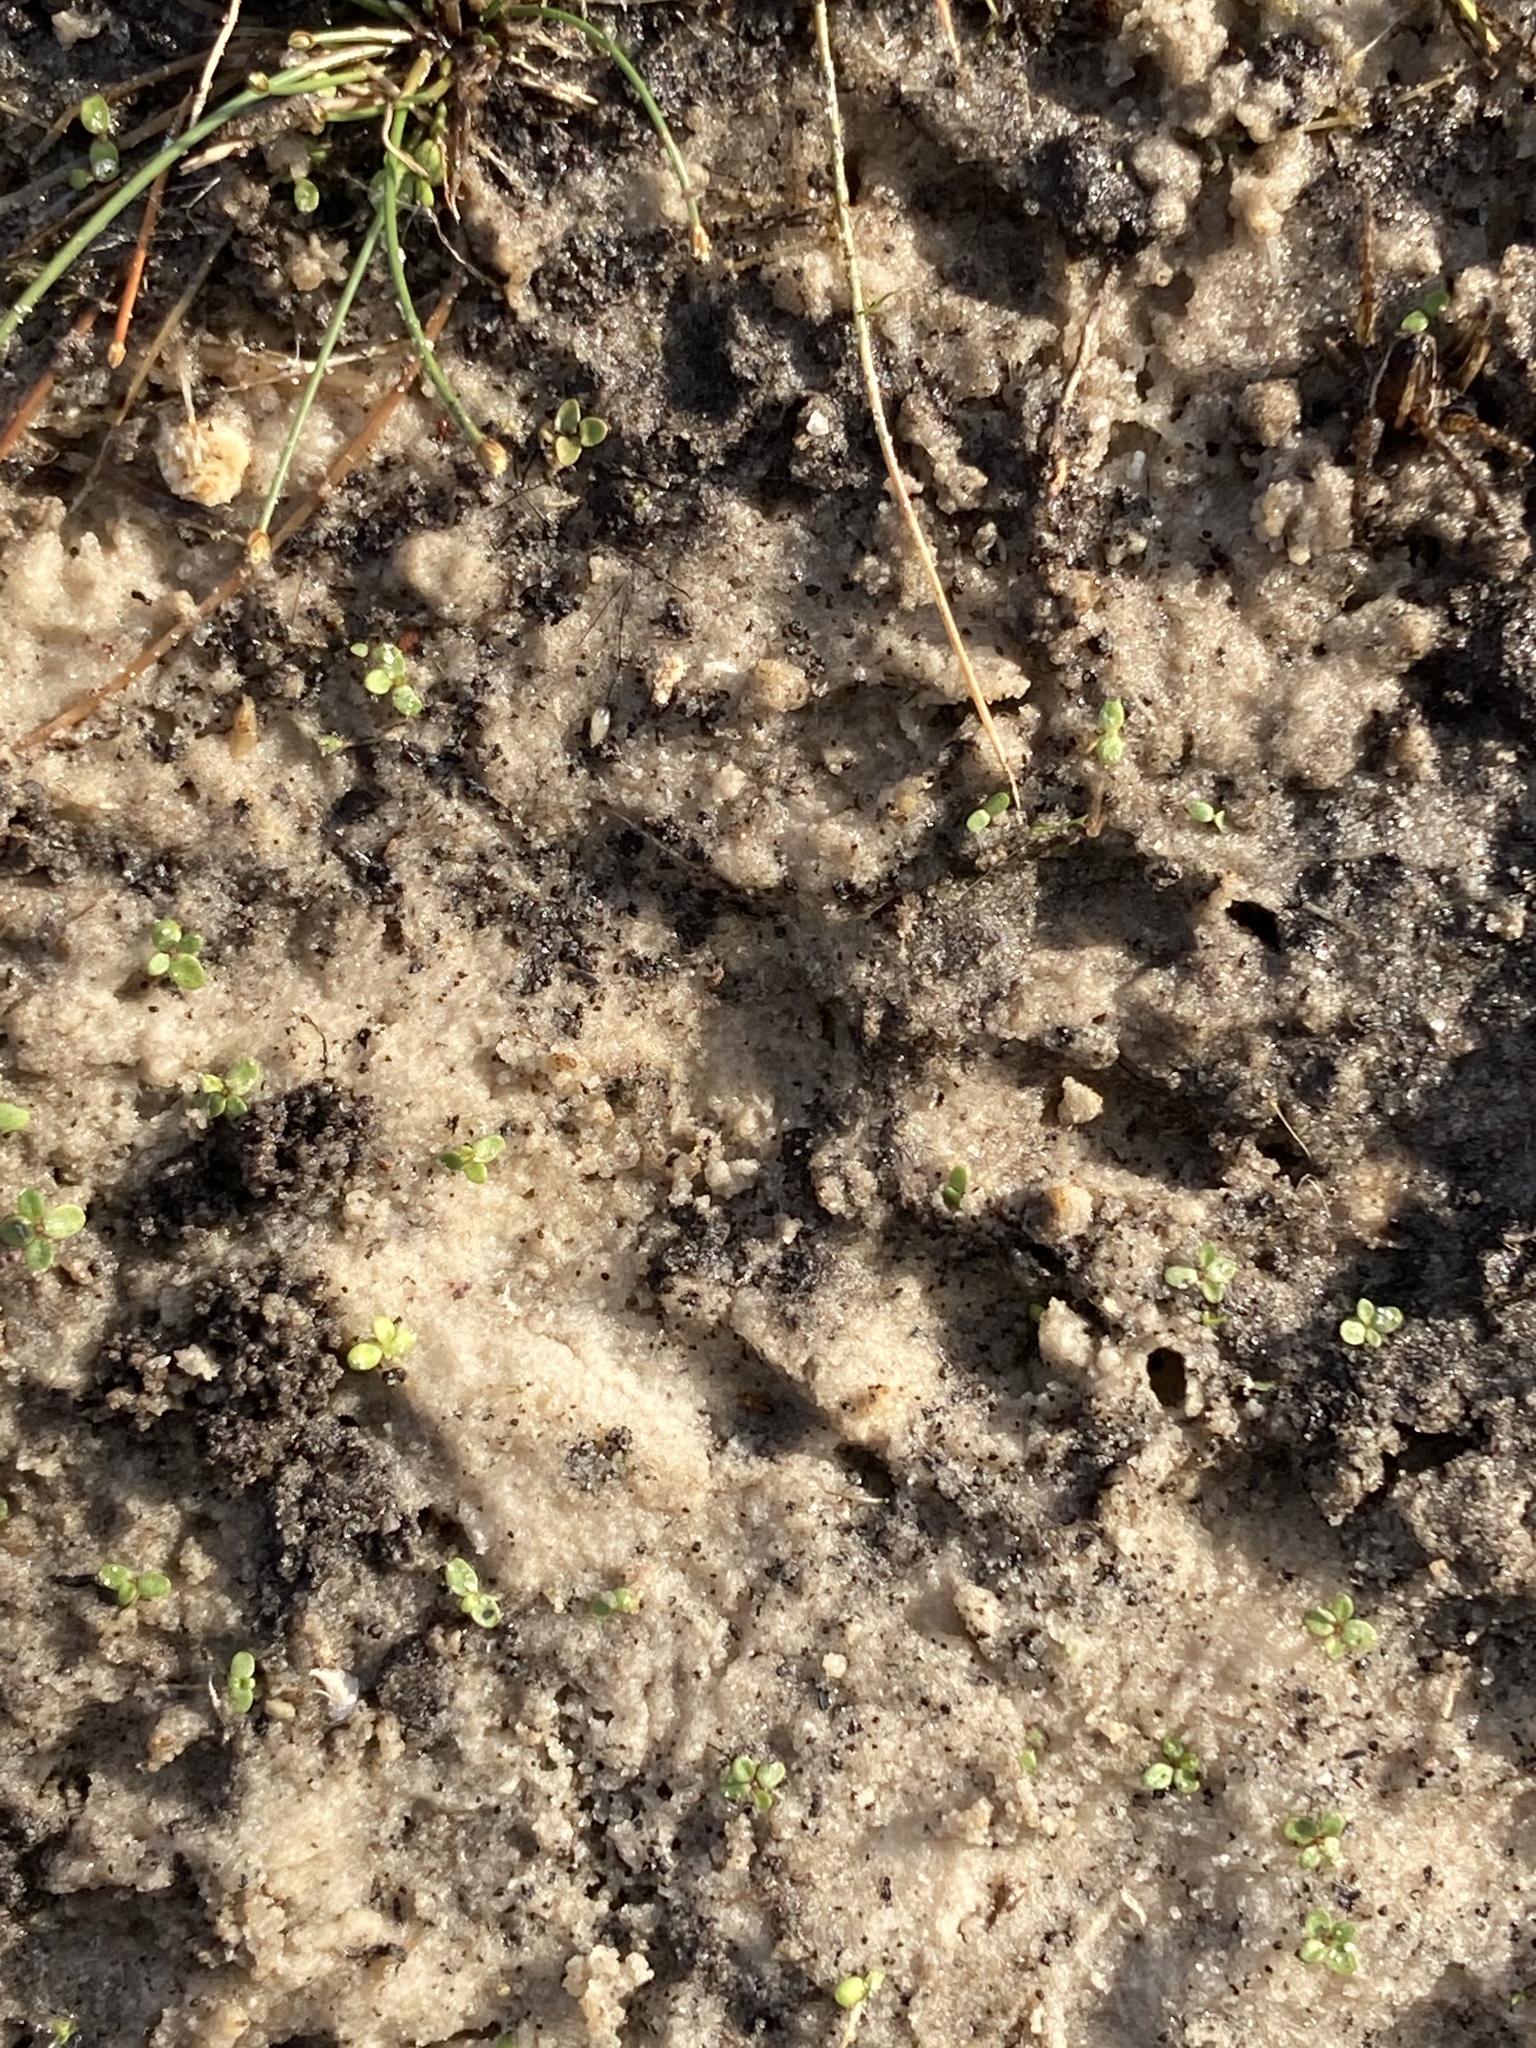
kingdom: Animalia
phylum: Chordata
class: Mammalia
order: Carnivora
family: Procyonidae
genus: Procyon
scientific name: Procyon lotor
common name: Raccoon
